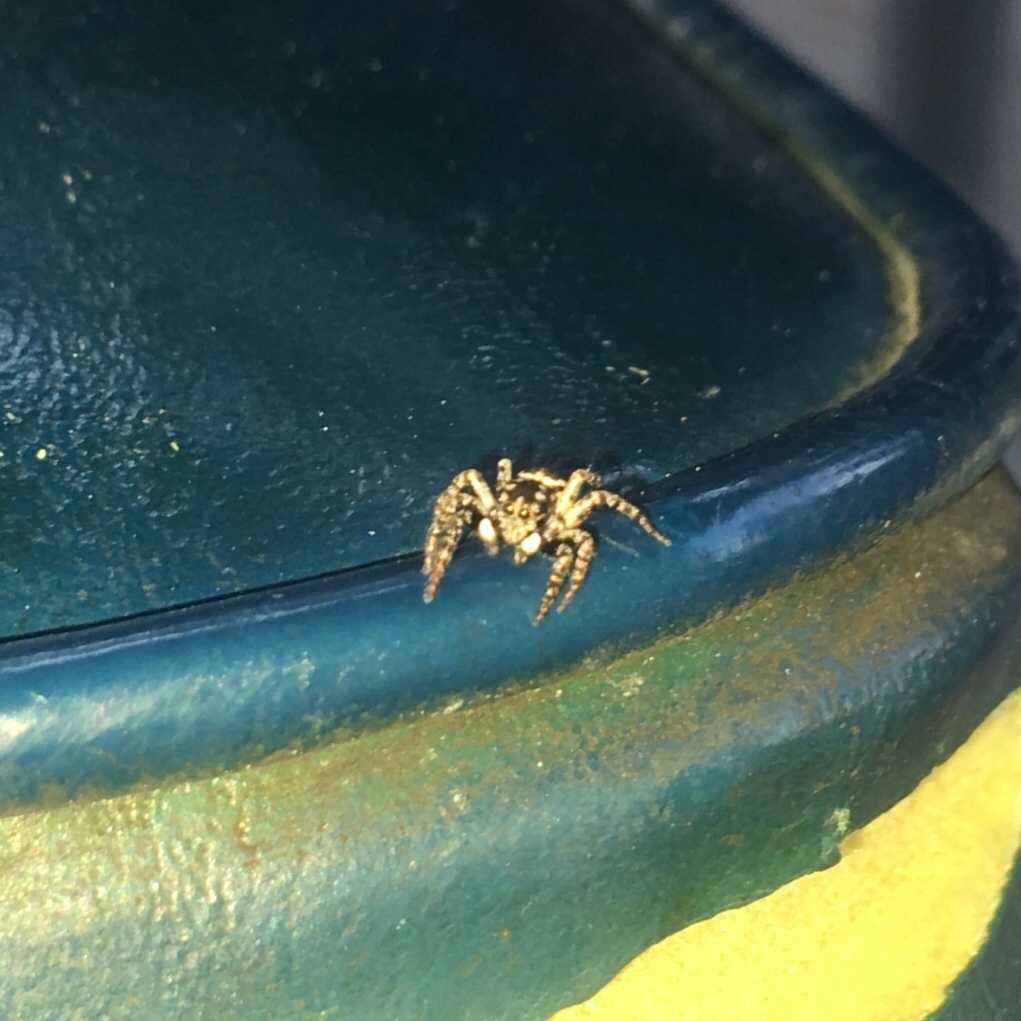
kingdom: Animalia
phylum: Arthropoda
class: Arachnida
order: Araneae
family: Salticidae
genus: Anasaitis
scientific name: Anasaitis canosa
